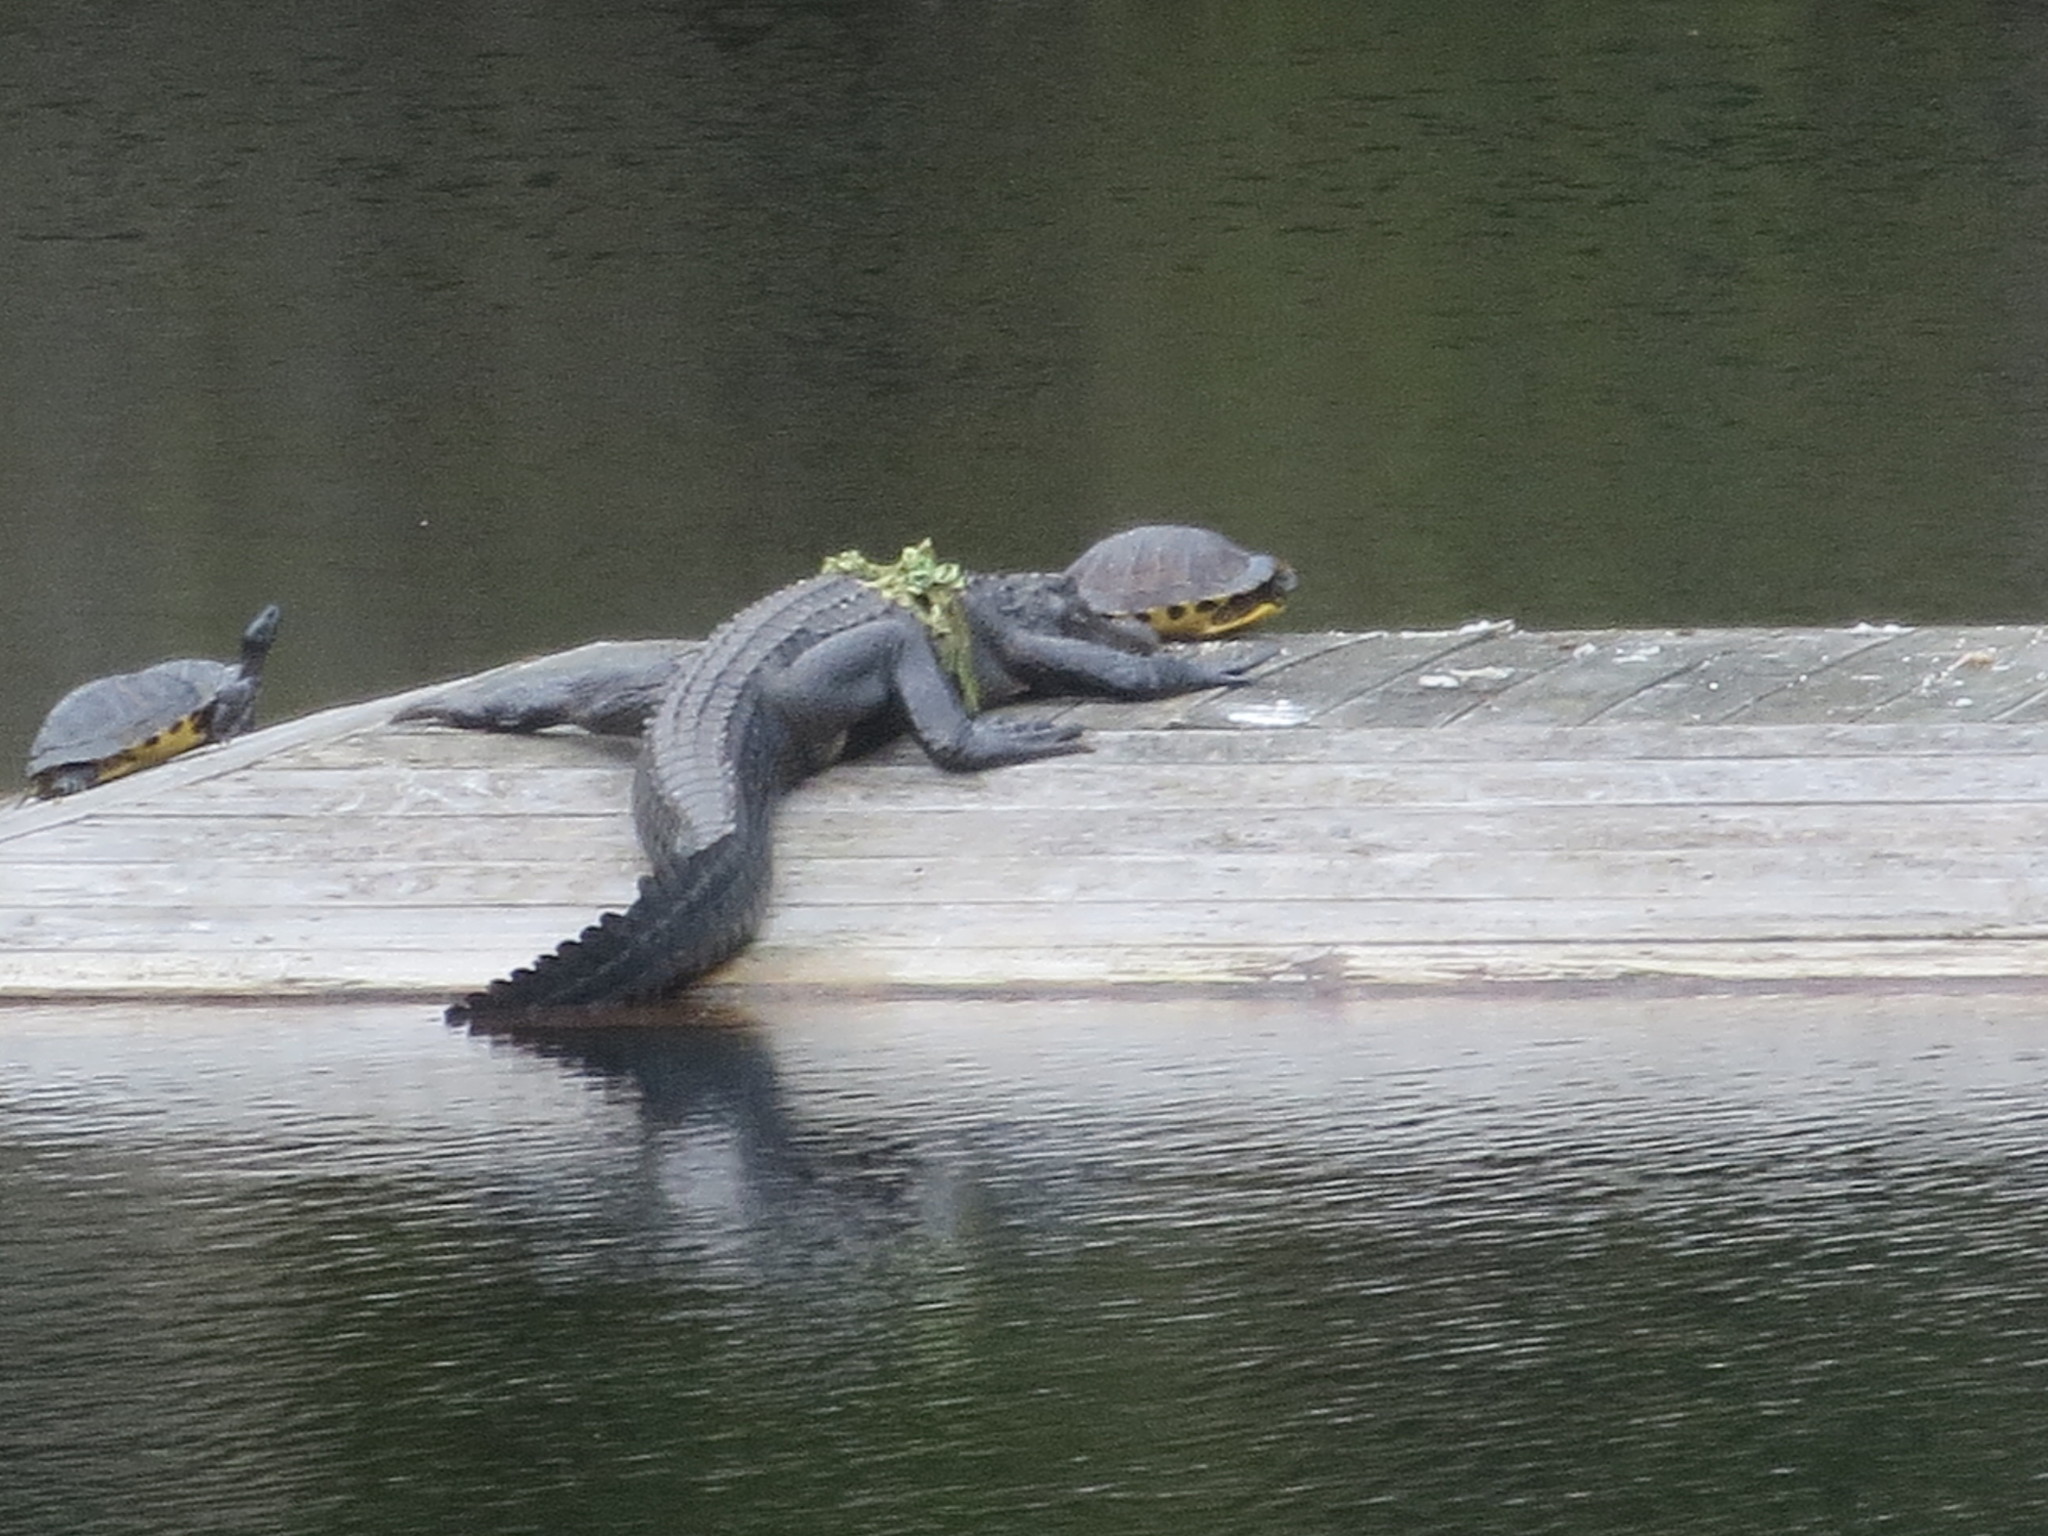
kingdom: Animalia
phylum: Chordata
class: Crocodylia
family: Alligatoridae
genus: Alligator
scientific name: Alligator mississippiensis
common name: American alligator
